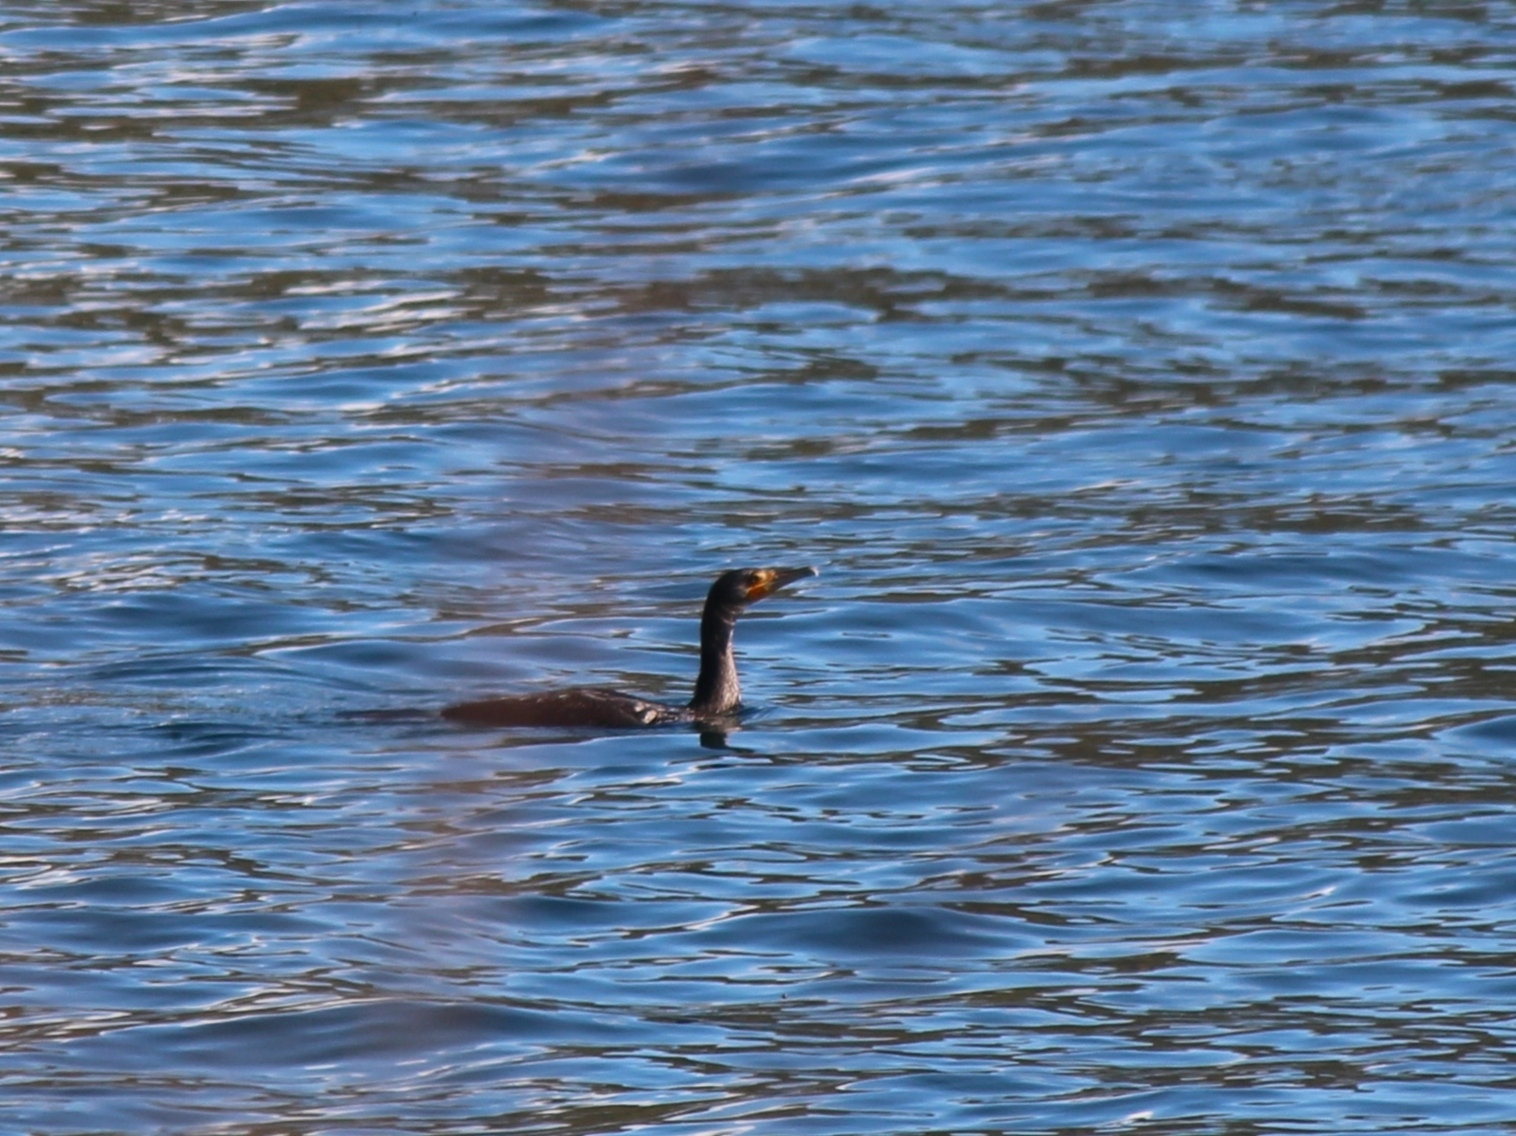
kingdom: Animalia
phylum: Chordata
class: Aves
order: Suliformes
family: Phalacrocoracidae
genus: Phalacrocorax
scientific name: Phalacrocorax carbo
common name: Great cormorant
